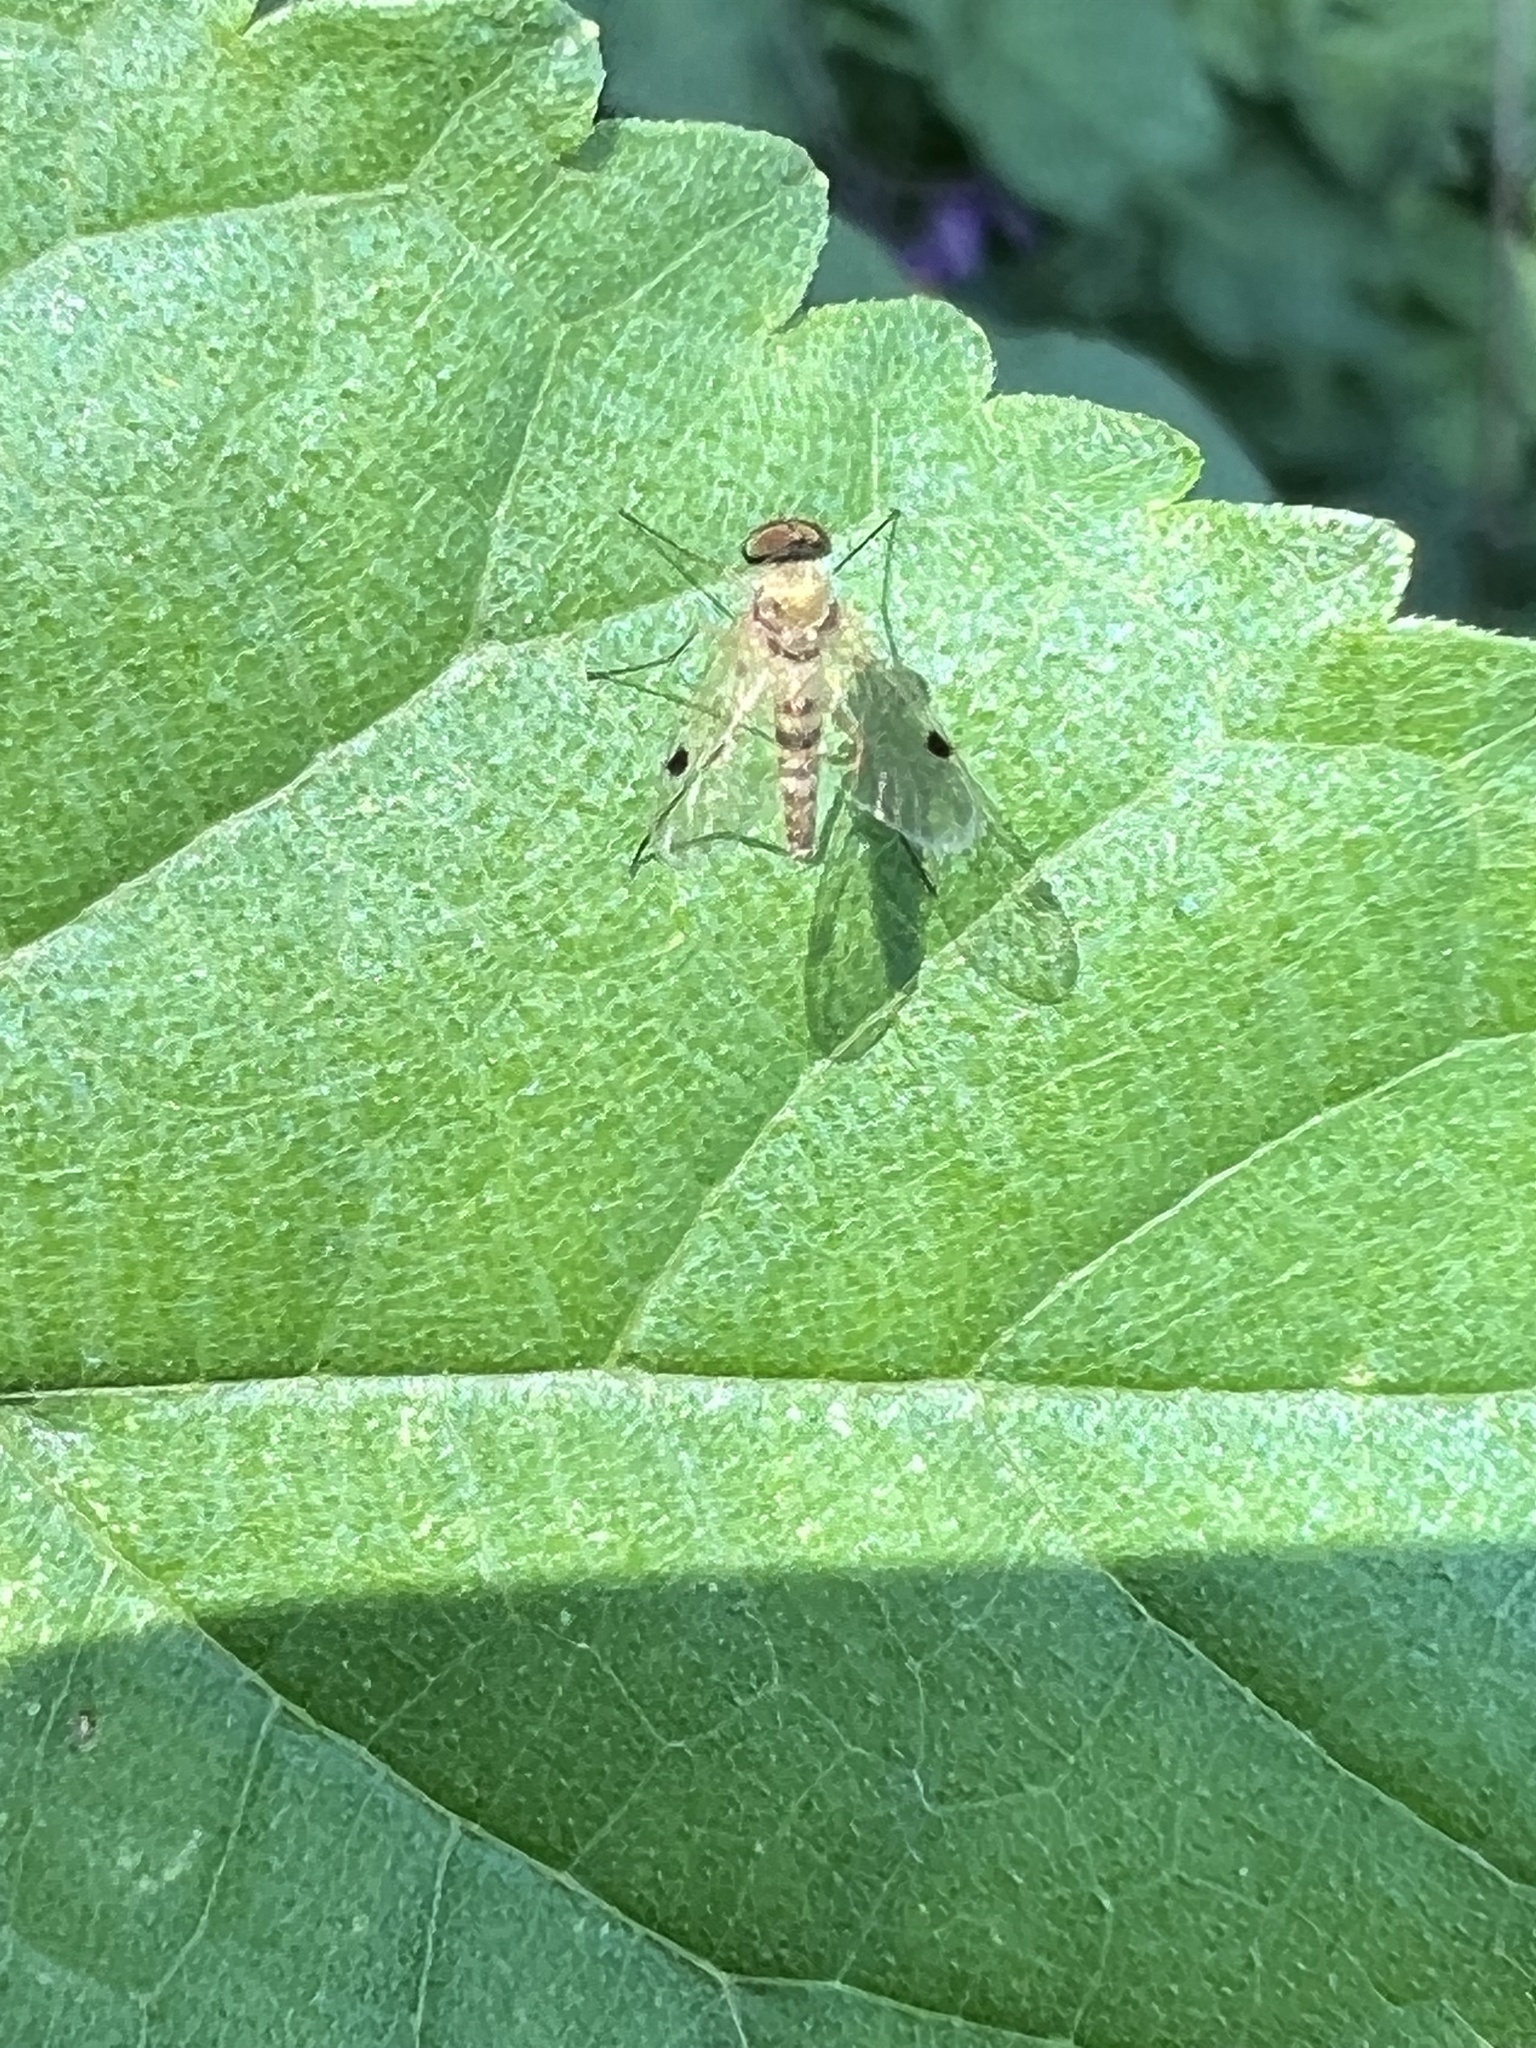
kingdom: Animalia
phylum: Arthropoda
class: Insecta
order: Diptera
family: Rhagionidae
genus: Chrysopilus
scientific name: Chrysopilus modestus
